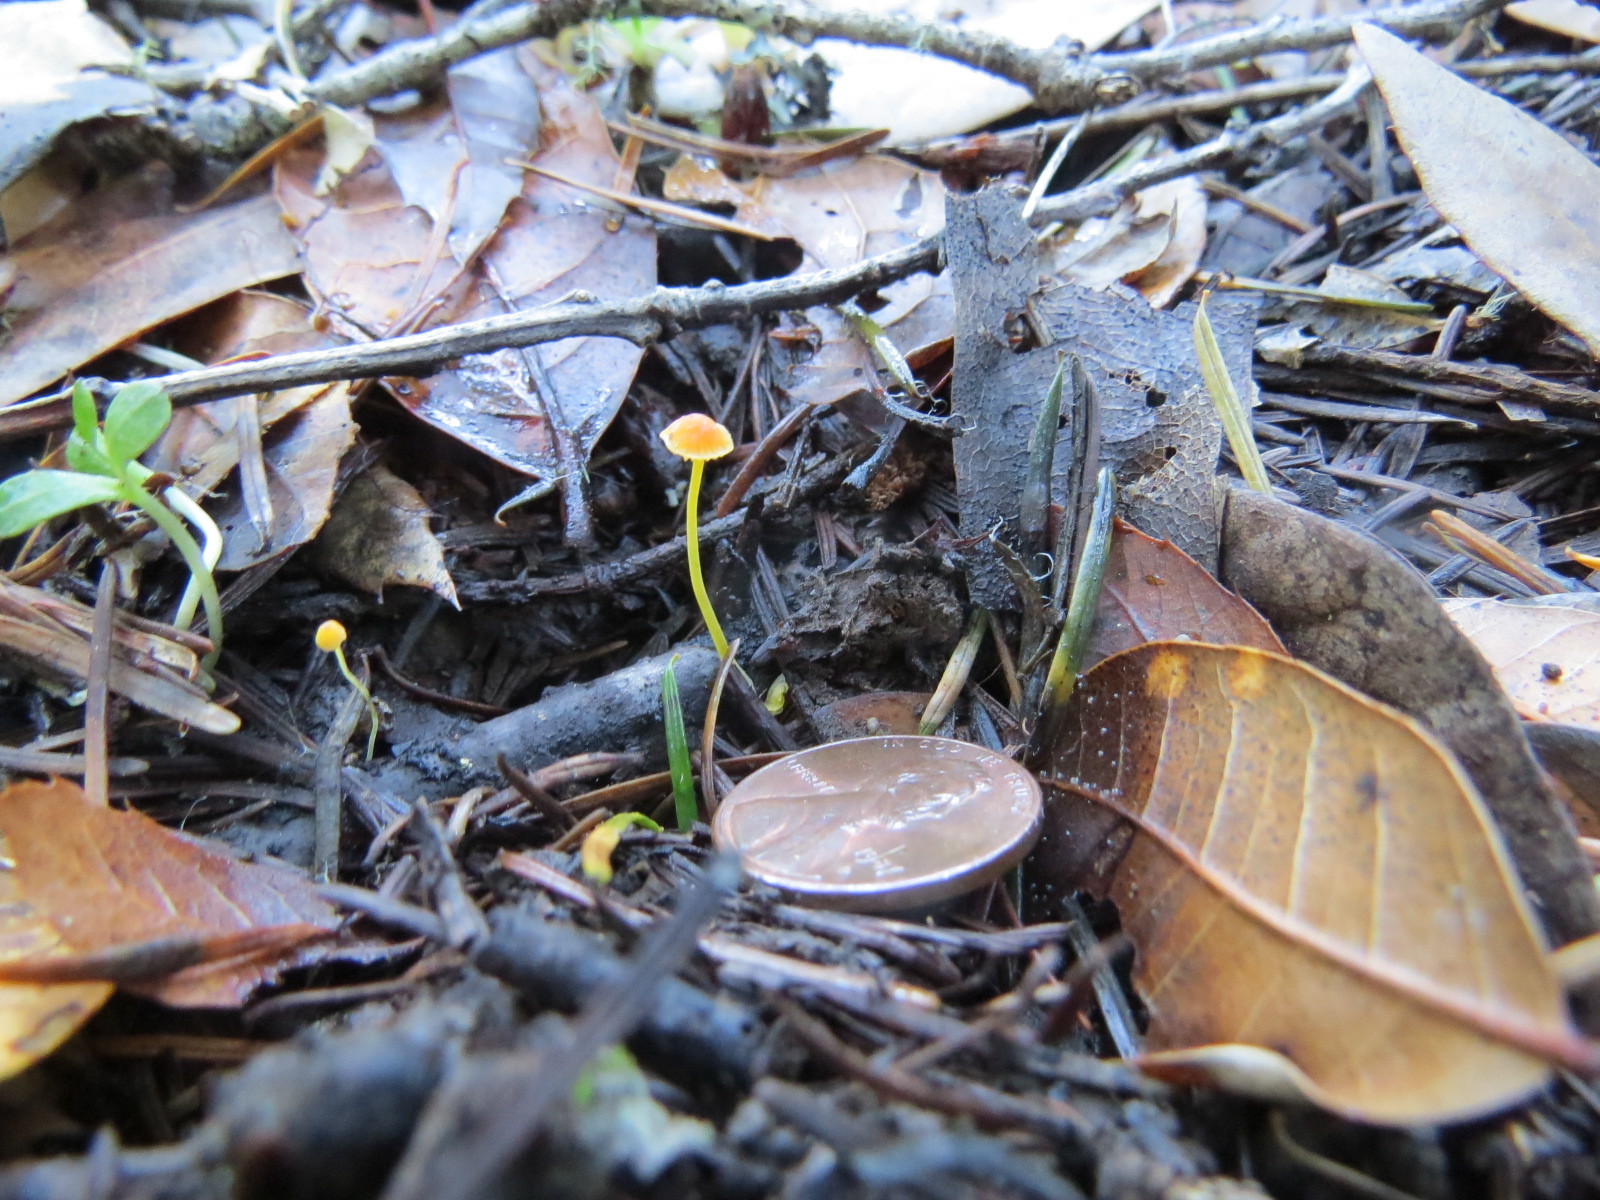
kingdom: Fungi
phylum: Basidiomycota
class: Agaricomycetes
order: Agaricales
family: Mycenaceae
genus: Mycena
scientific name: Mycena oregonensis
